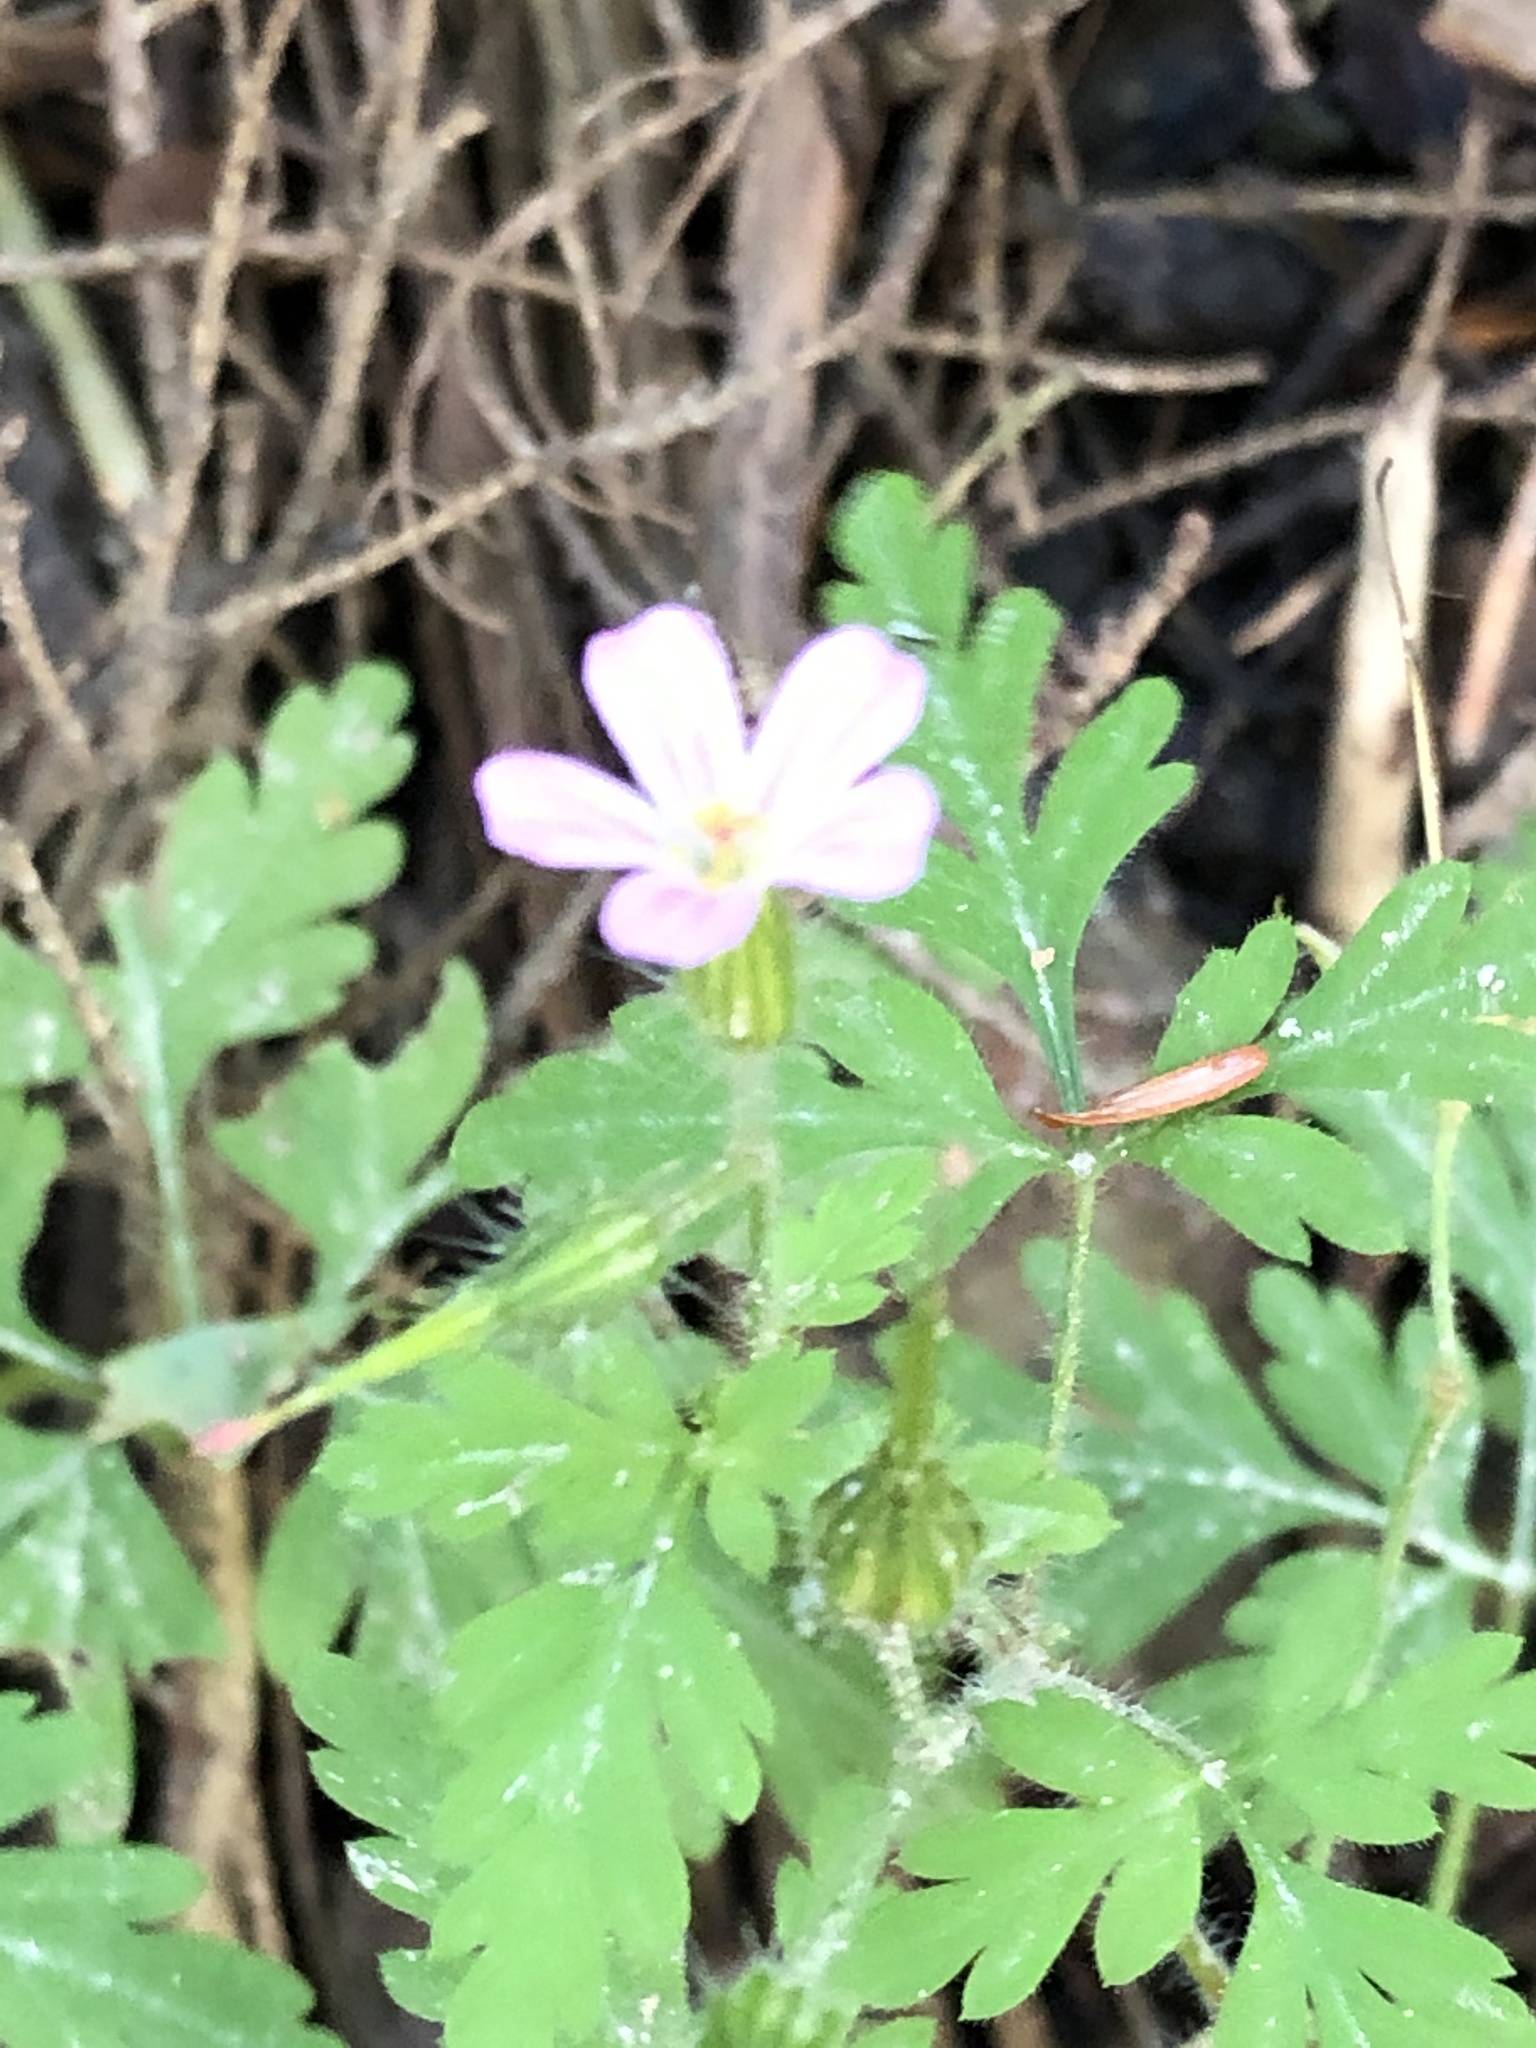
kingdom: Plantae
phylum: Tracheophyta
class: Magnoliopsida
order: Geraniales
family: Geraniaceae
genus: Geranium
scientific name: Geranium robertianum
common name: Herb-robert
